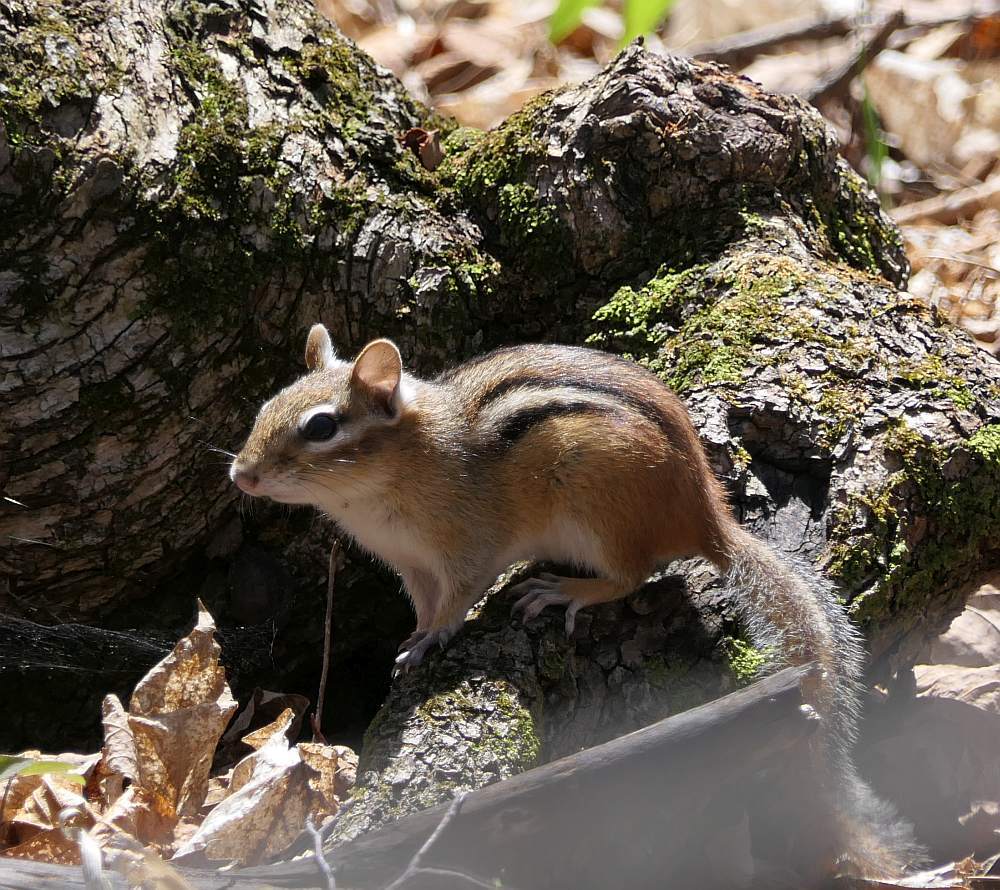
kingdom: Animalia
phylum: Chordata
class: Mammalia
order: Rodentia
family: Sciuridae
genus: Tamias
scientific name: Tamias striatus
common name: Eastern chipmunk
